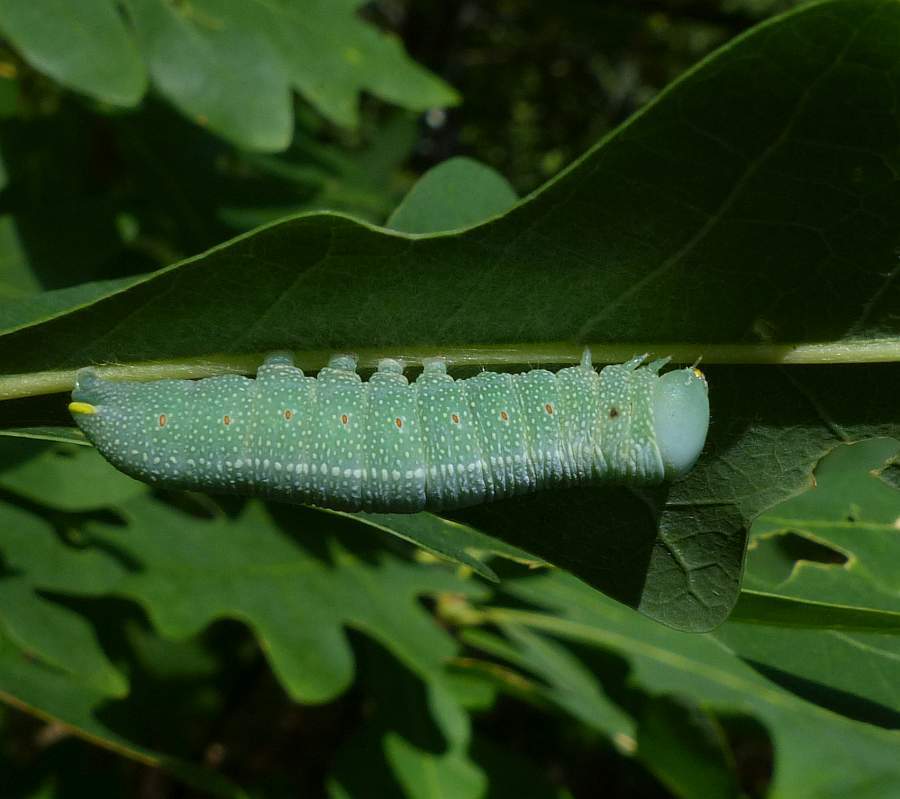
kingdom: Animalia
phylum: Arthropoda
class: Insecta
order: Lepidoptera
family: Notodontidae
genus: Nadata
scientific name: Nadata gibbosa
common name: White-dotted prominent
